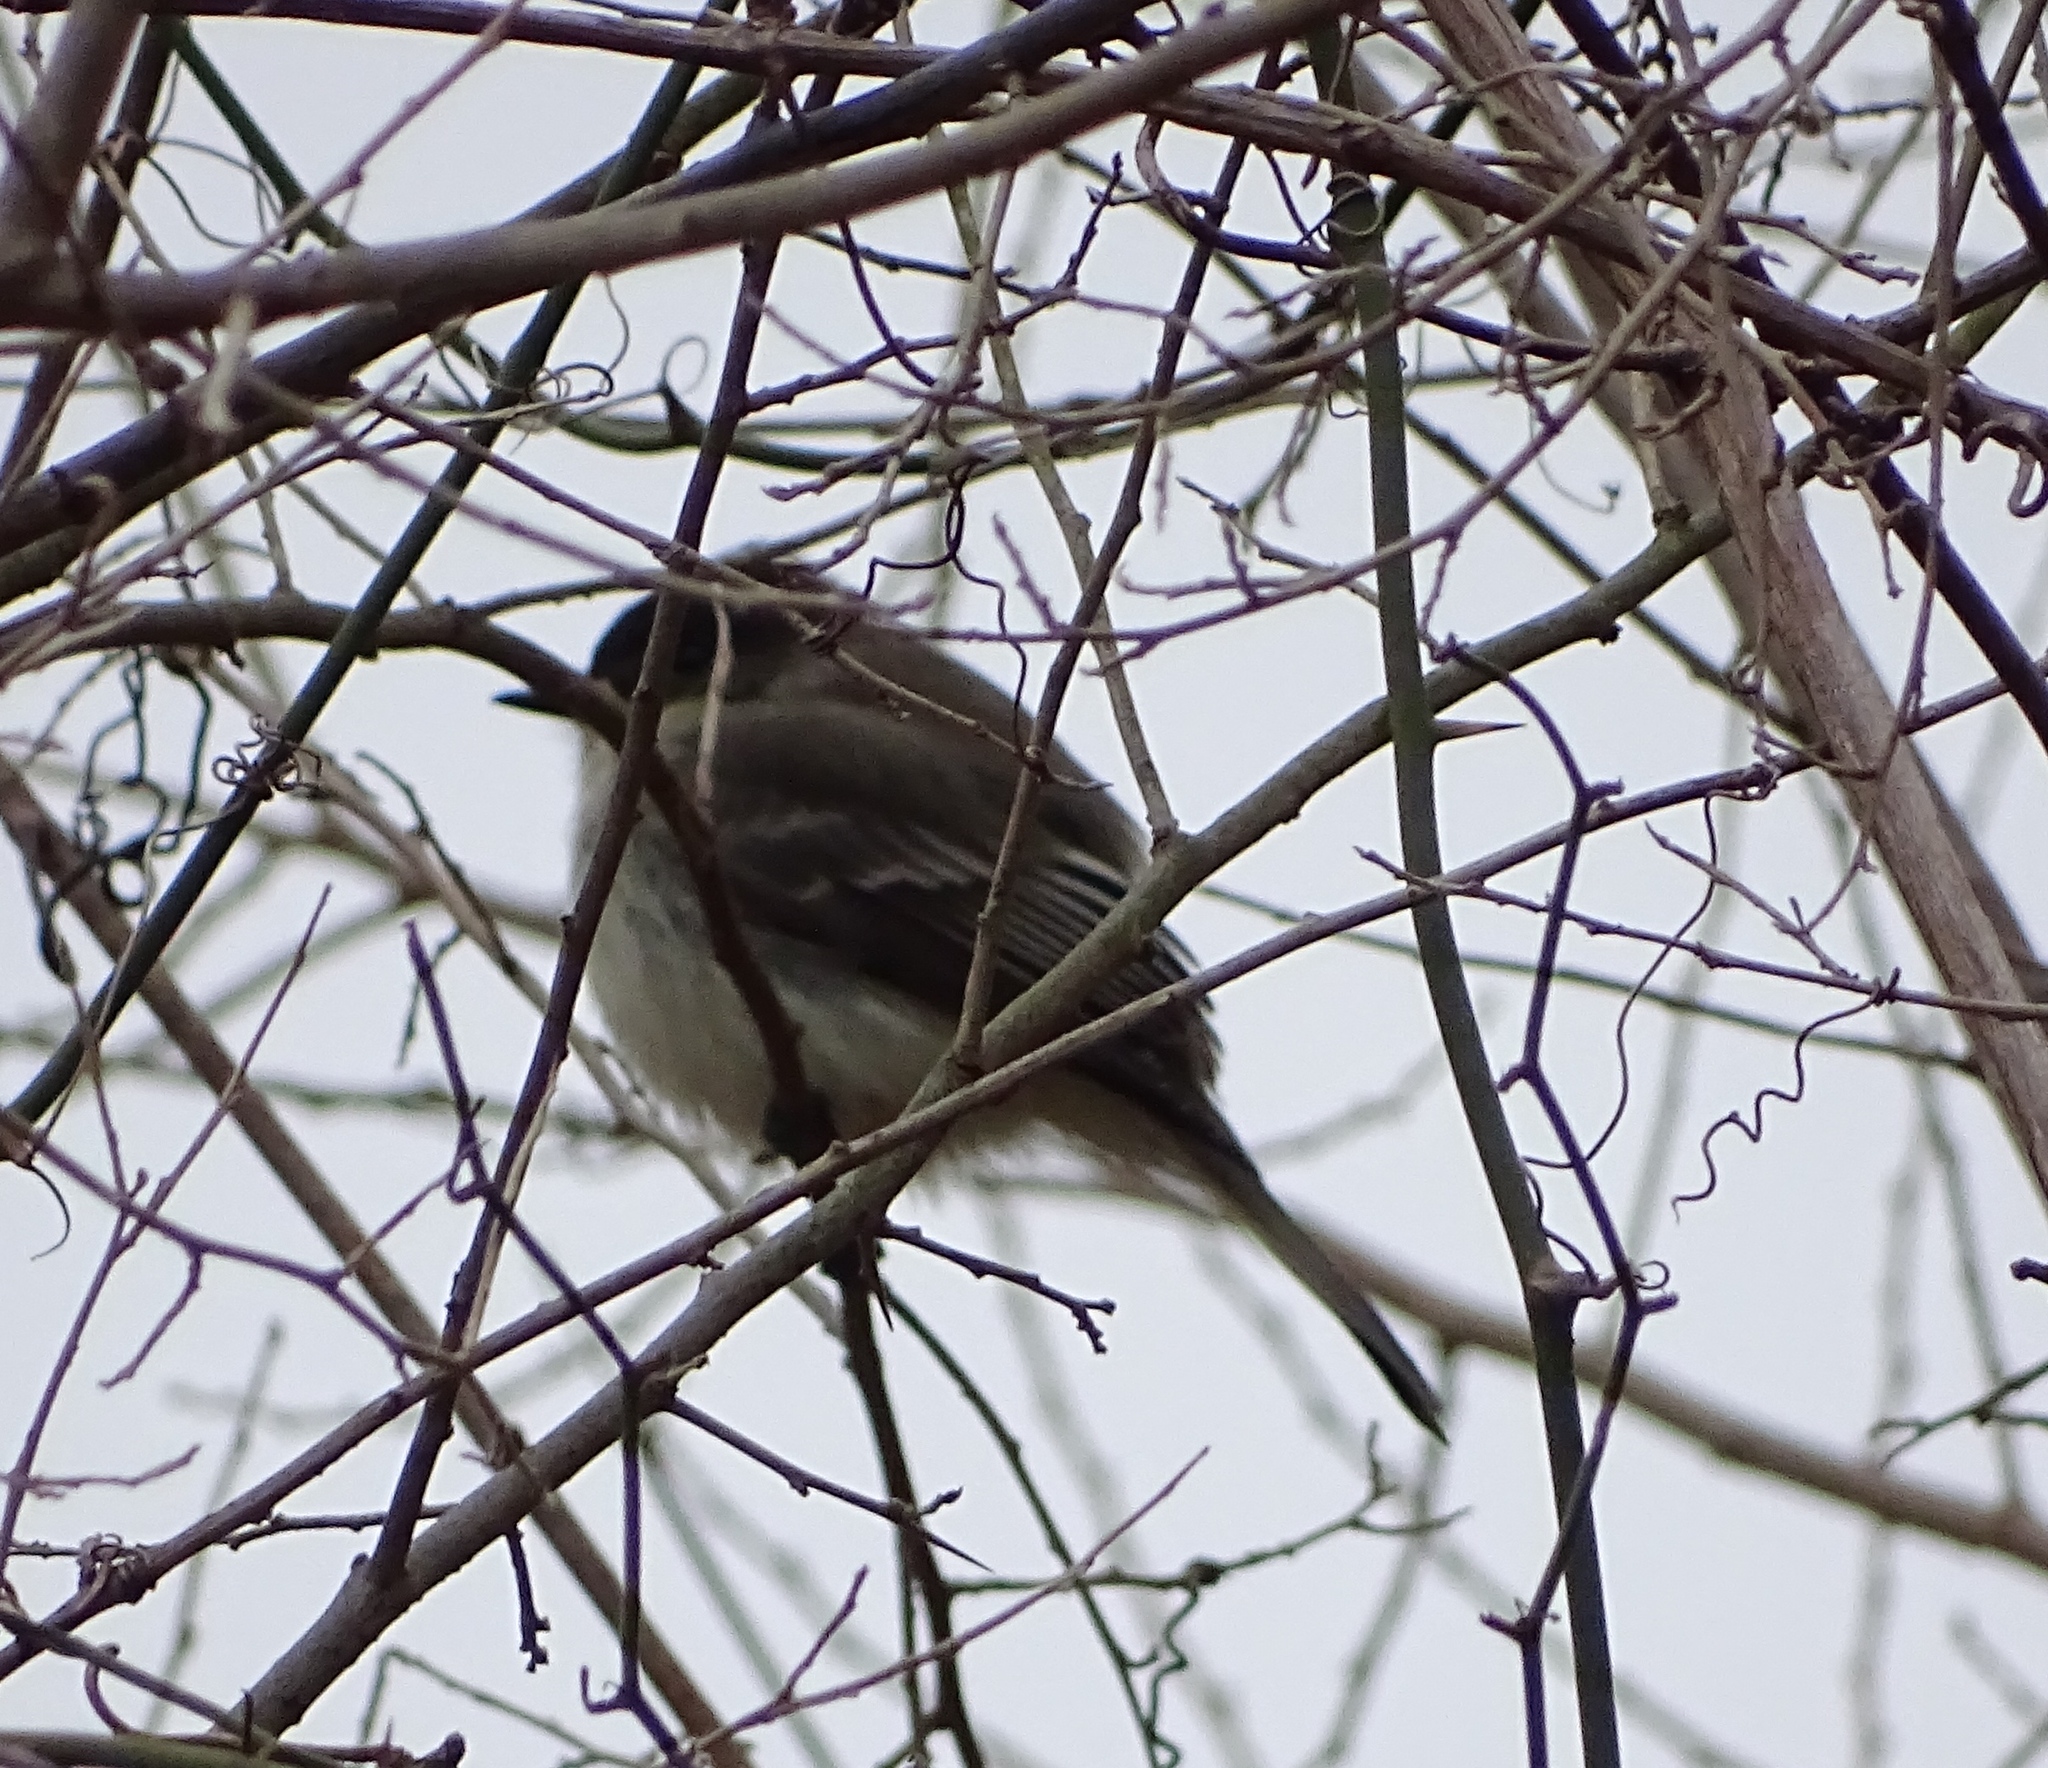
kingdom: Animalia
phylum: Chordata
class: Aves
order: Passeriformes
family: Tyrannidae
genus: Sayornis
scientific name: Sayornis phoebe
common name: Eastern phoebe
